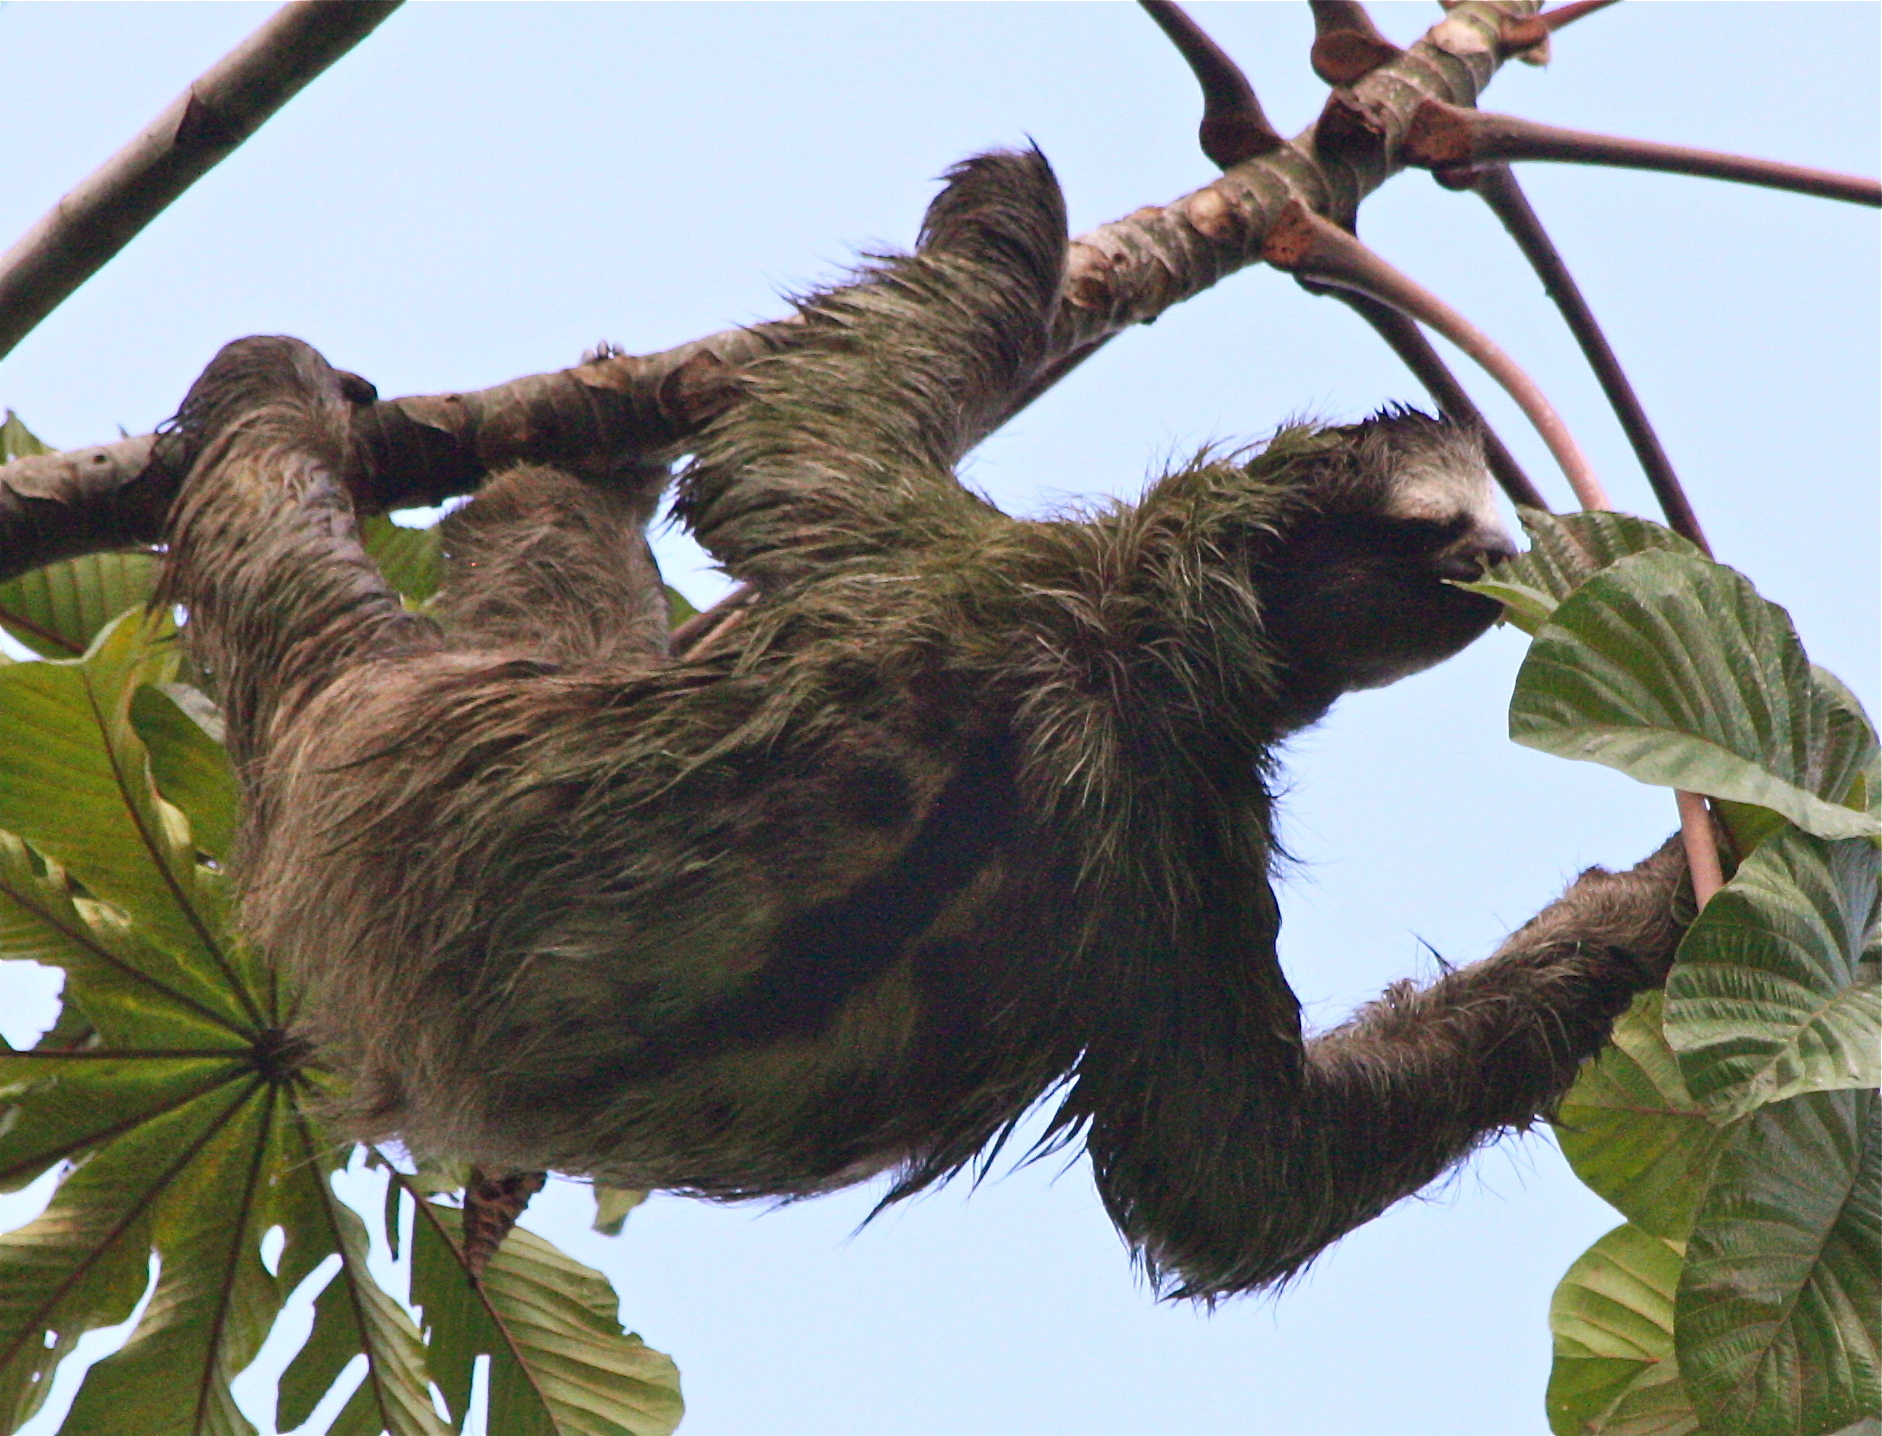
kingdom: Animalia
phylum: Chordata
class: Mammalia
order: Pilosa
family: Bradypodidae
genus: Bradypus
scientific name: Bradypus variegatus
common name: Brown-throated three-toed sloth
